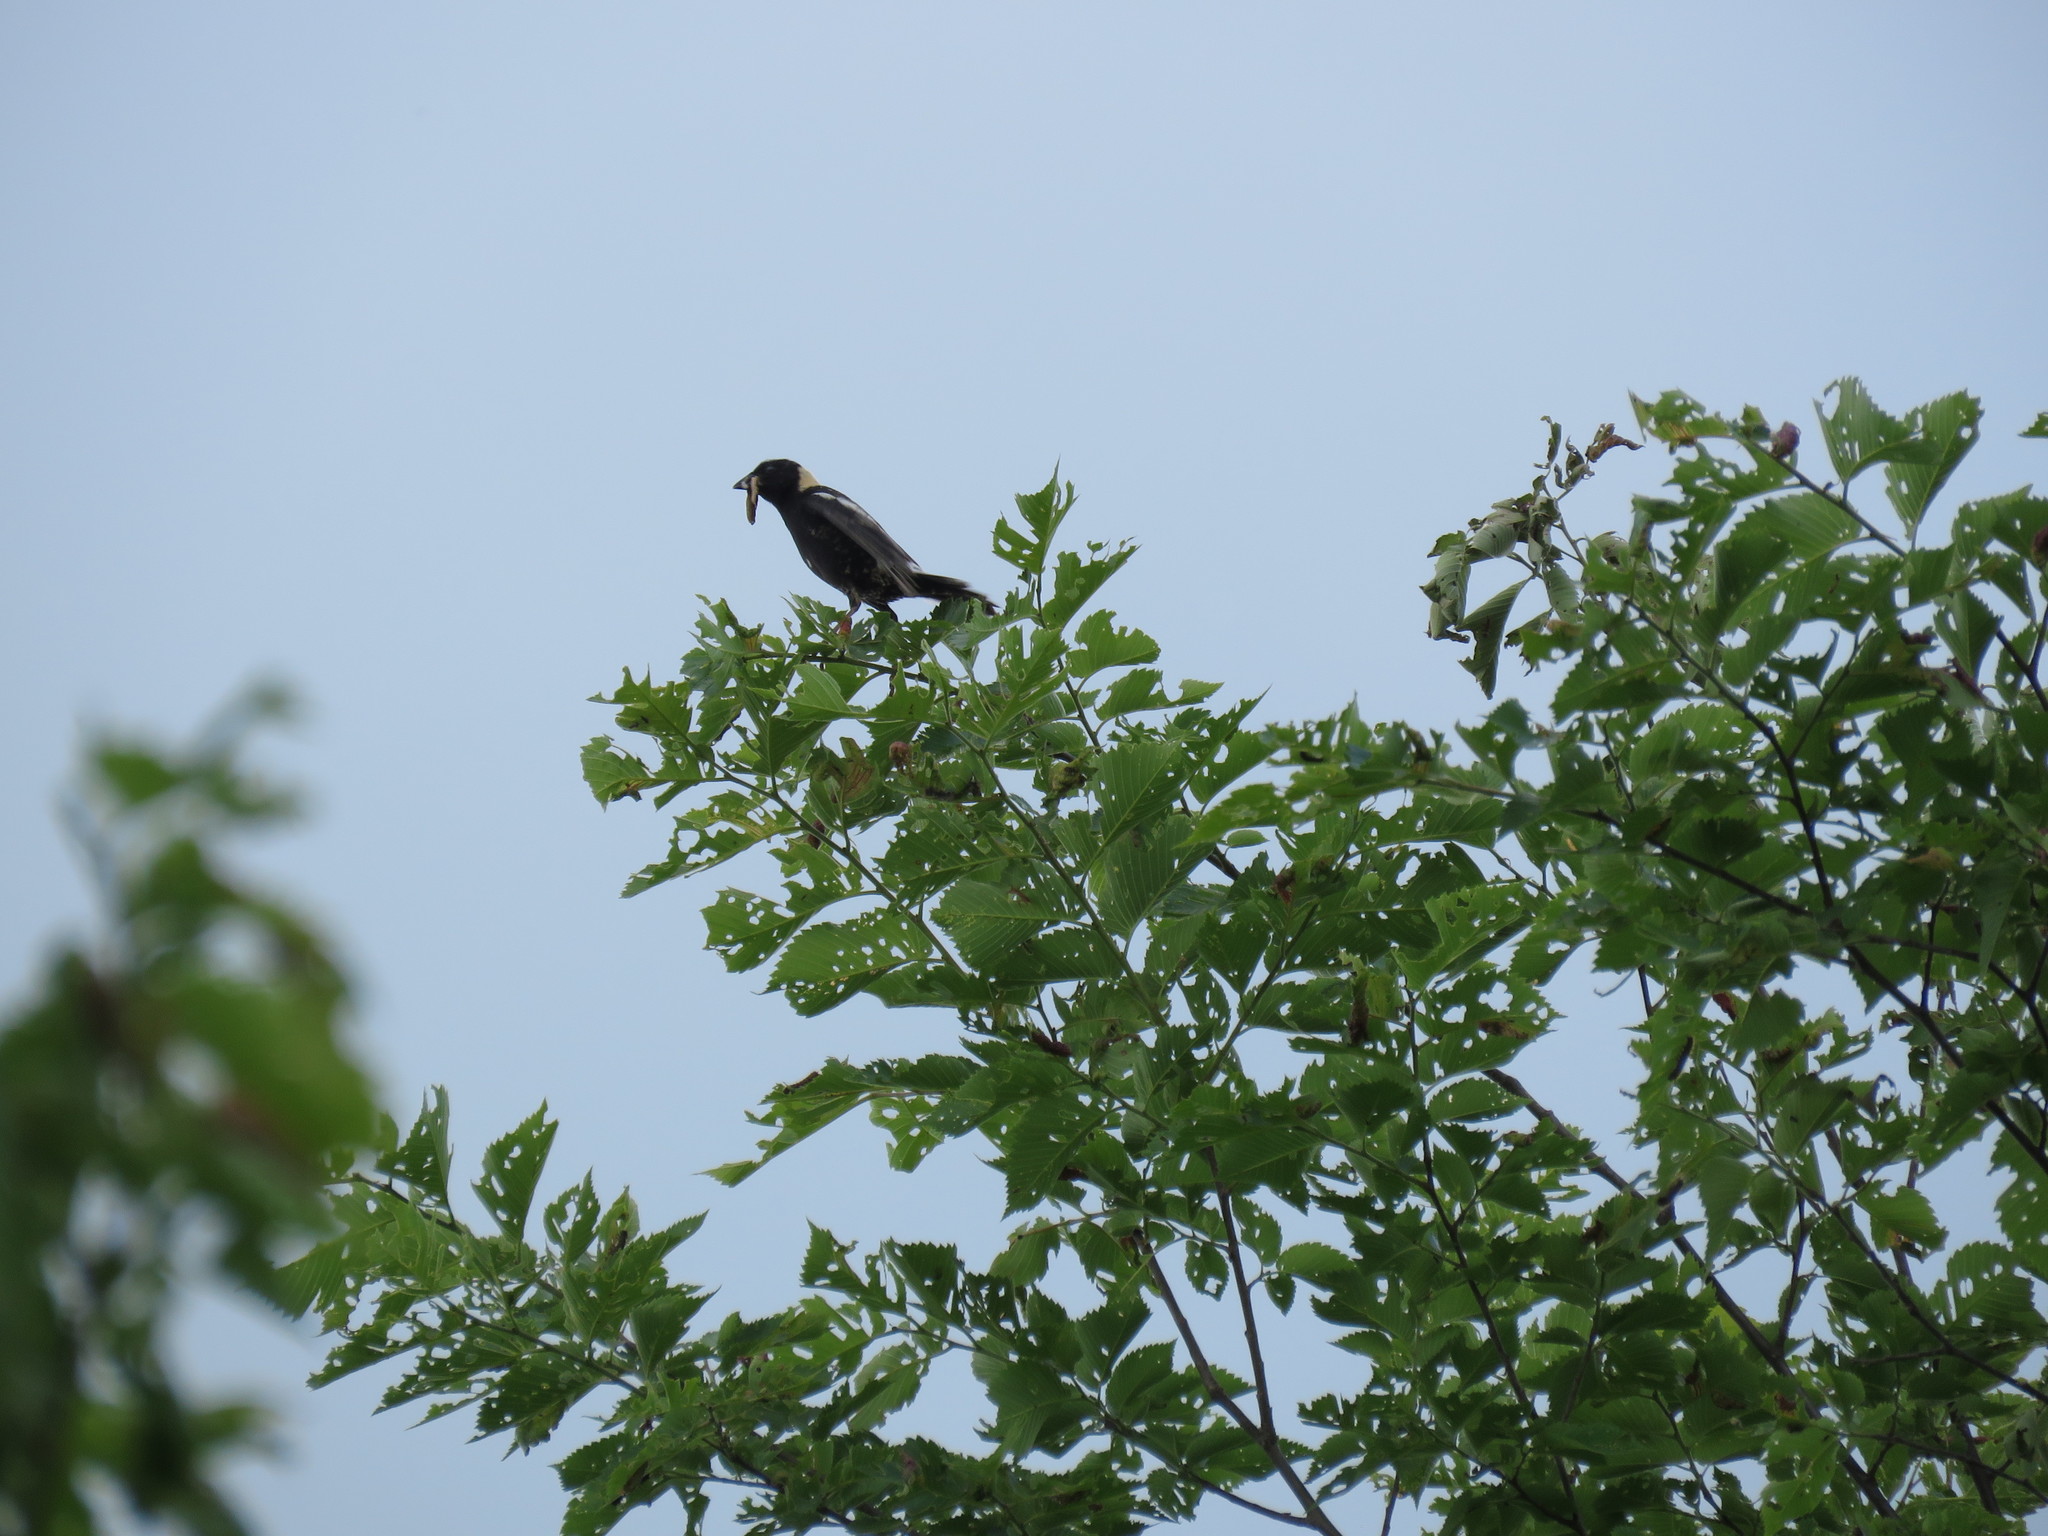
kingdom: Animalia
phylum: Chordata
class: Aves
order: Passeriformes
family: Icteridae
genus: Dolichonyx
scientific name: Dolichonyx oryzivorus
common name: Bobolink
